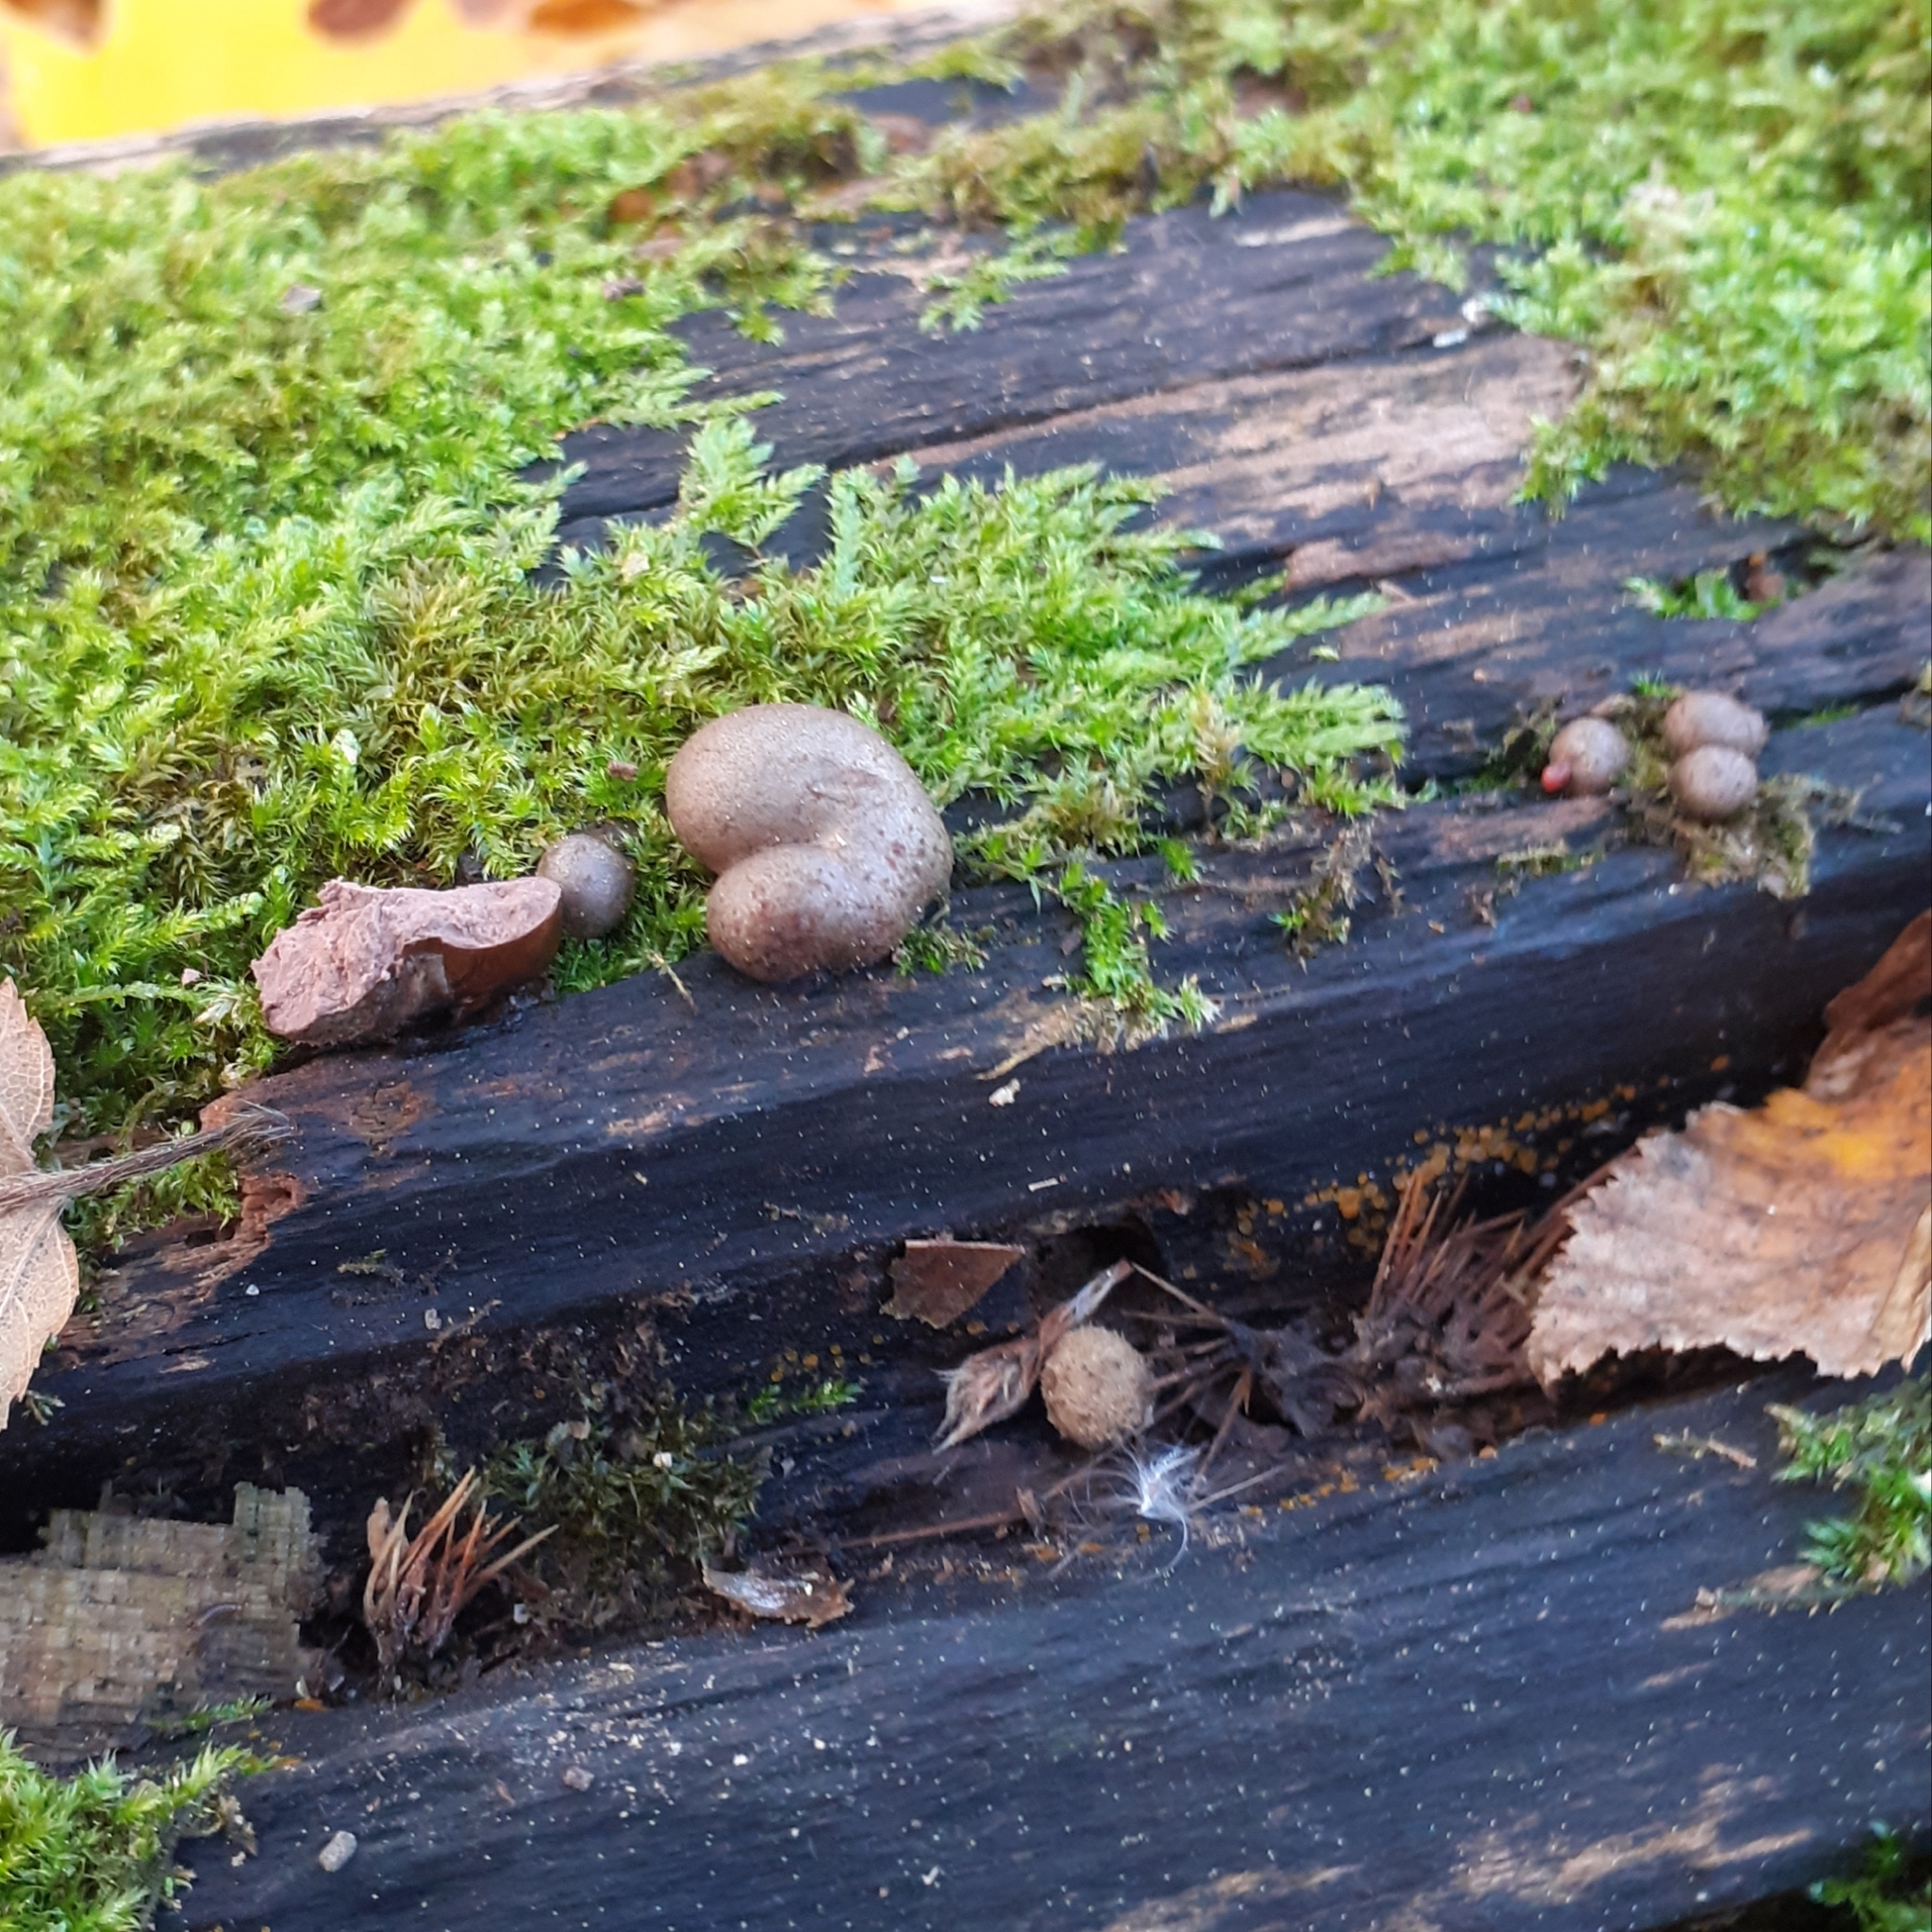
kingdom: Protozoa
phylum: Mycetozoa
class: Myxomycetes
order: Cribrariales
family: Tubiferaceae
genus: Lycogala
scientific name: Lycogala epidendrum
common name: Wolf's milk
